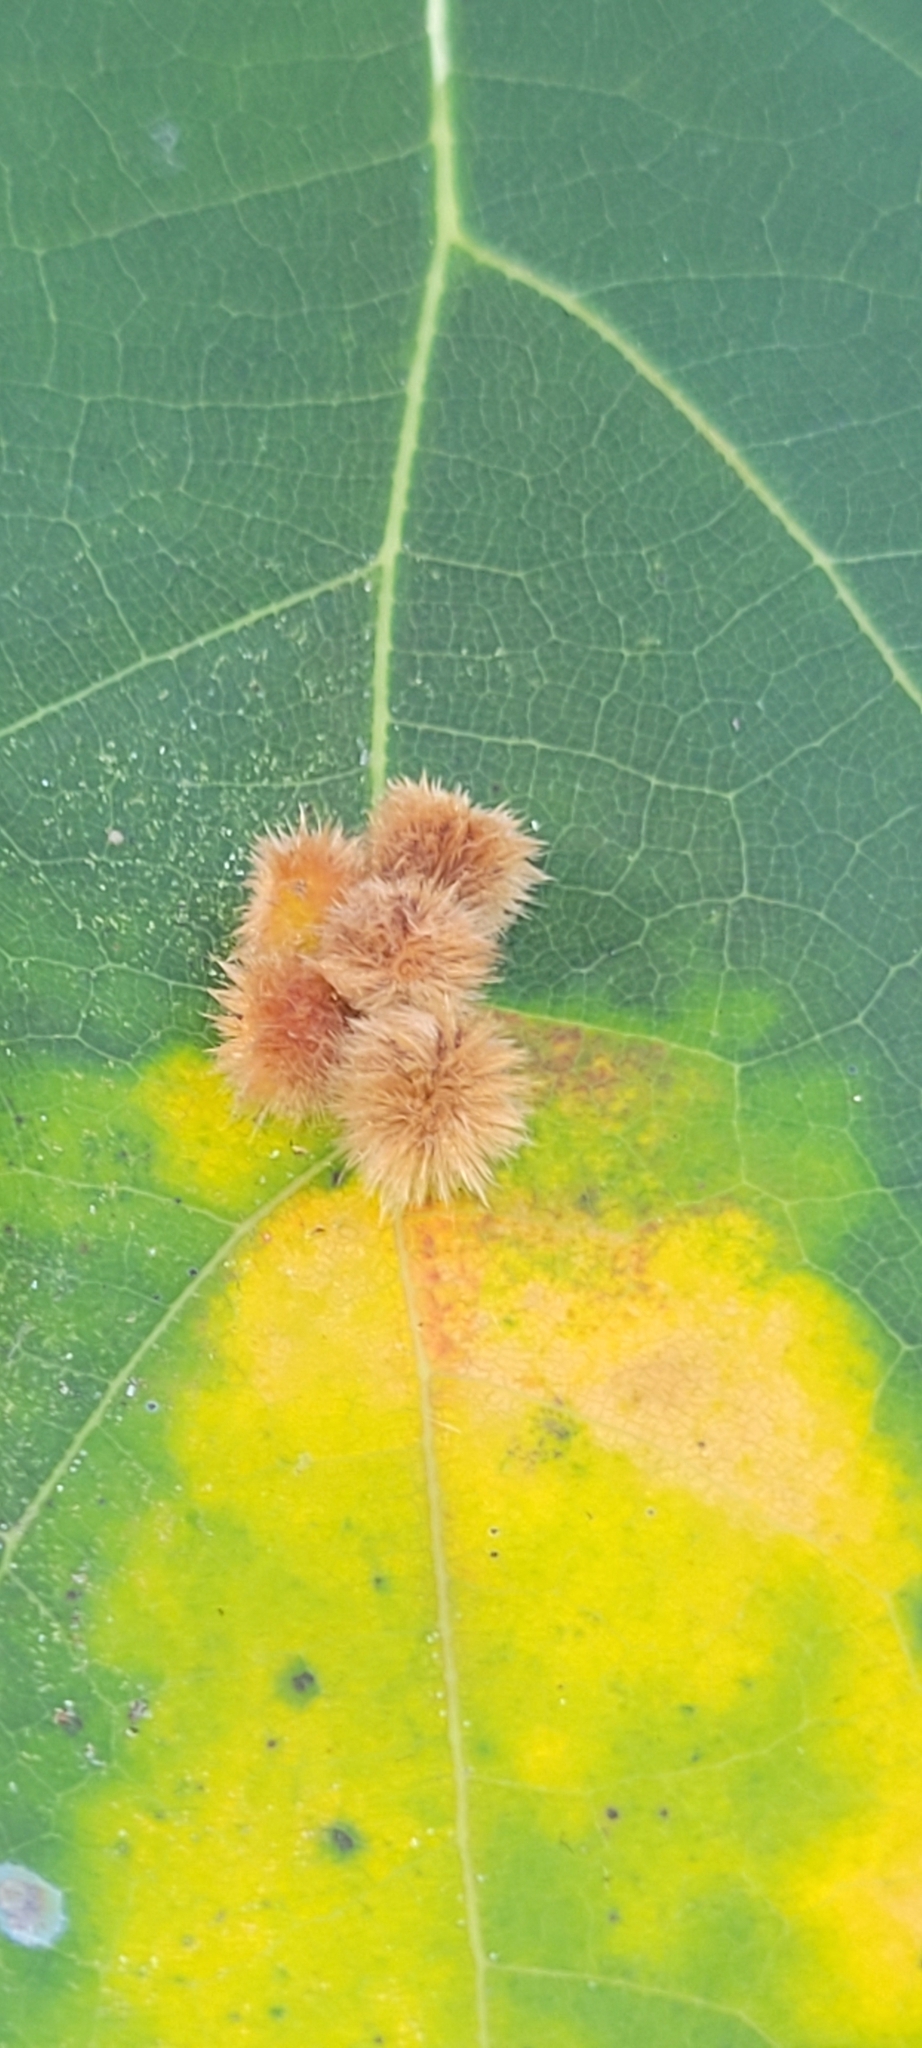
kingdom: Animalia
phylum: Arthropoda
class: Insecta
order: Hymenoptera
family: Cynipidae
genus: Callirhytis
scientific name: Callirhytis
